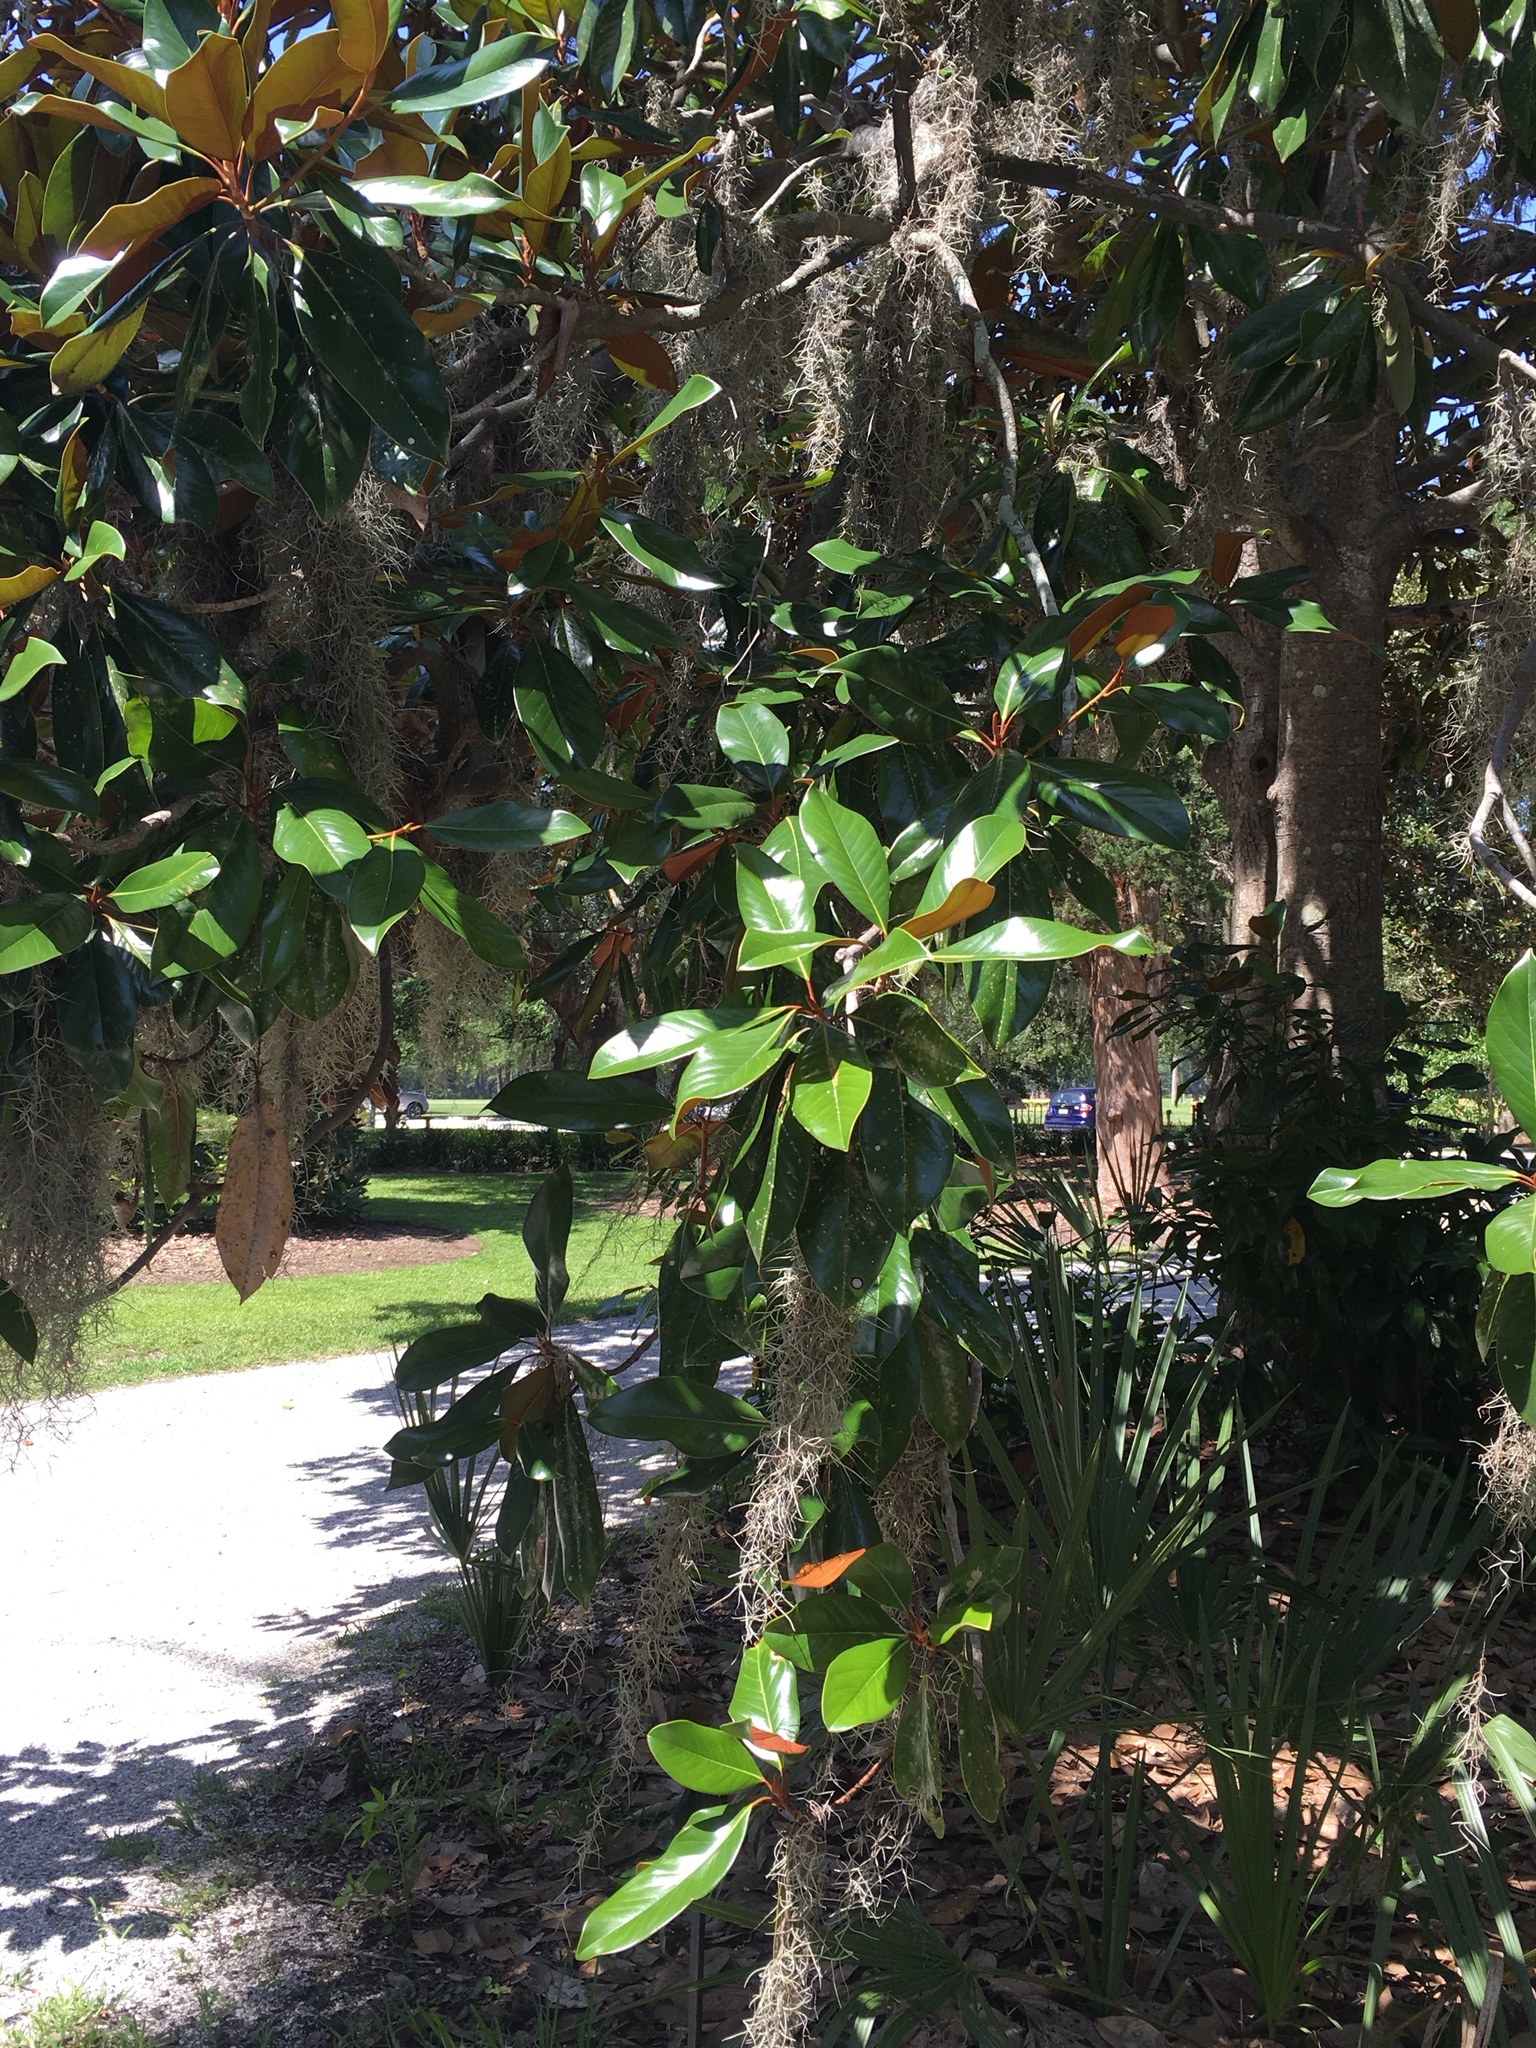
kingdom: Plantae
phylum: Tracheophyta
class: Magnoliopsida
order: Magnoliales
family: Magnoliaceae
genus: Magnolia
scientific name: Magnolia grandiflora
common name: Southern magnolia
